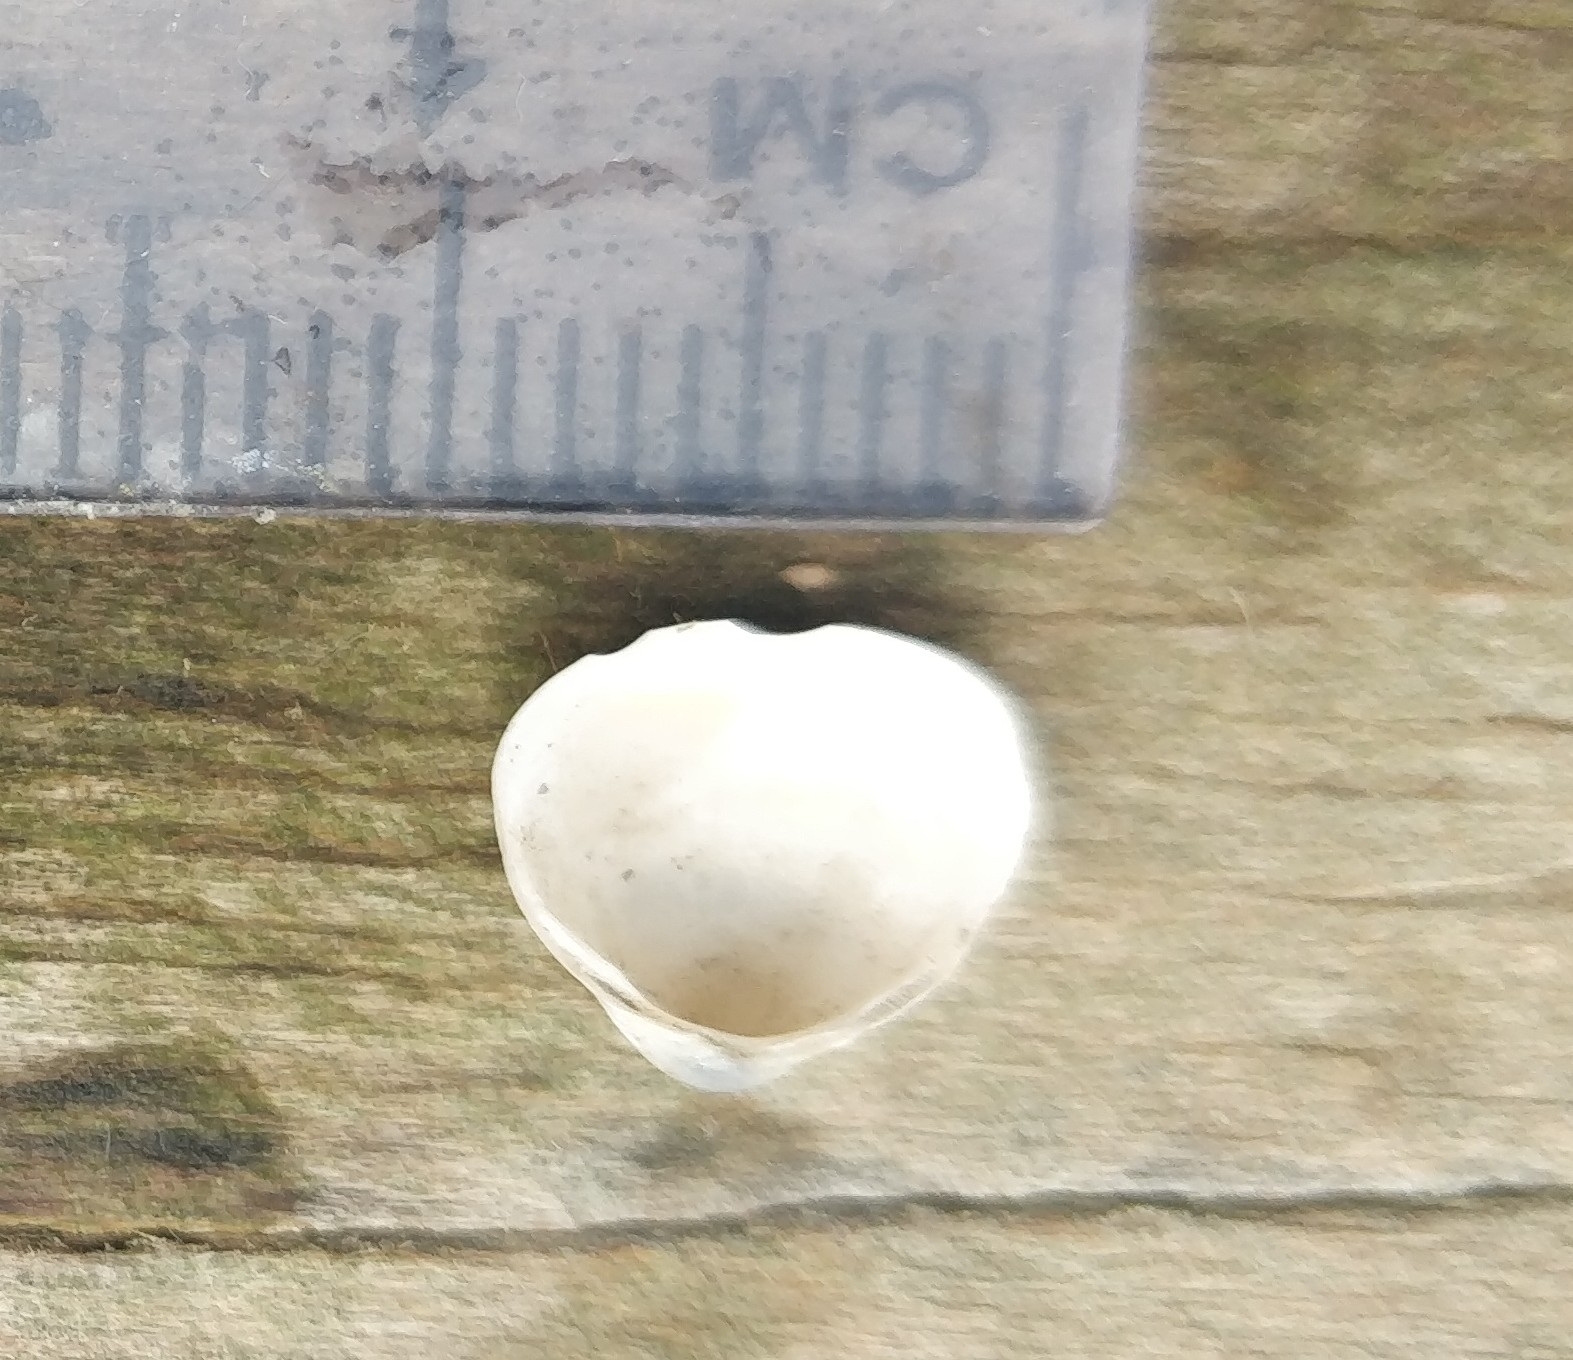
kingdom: Animalia
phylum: Mollusca
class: Bivalvia
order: Sphaeriida
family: Sphaeriidae
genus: Sphaerium
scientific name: Sphaerium striatinum
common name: Striated fingernailclam
